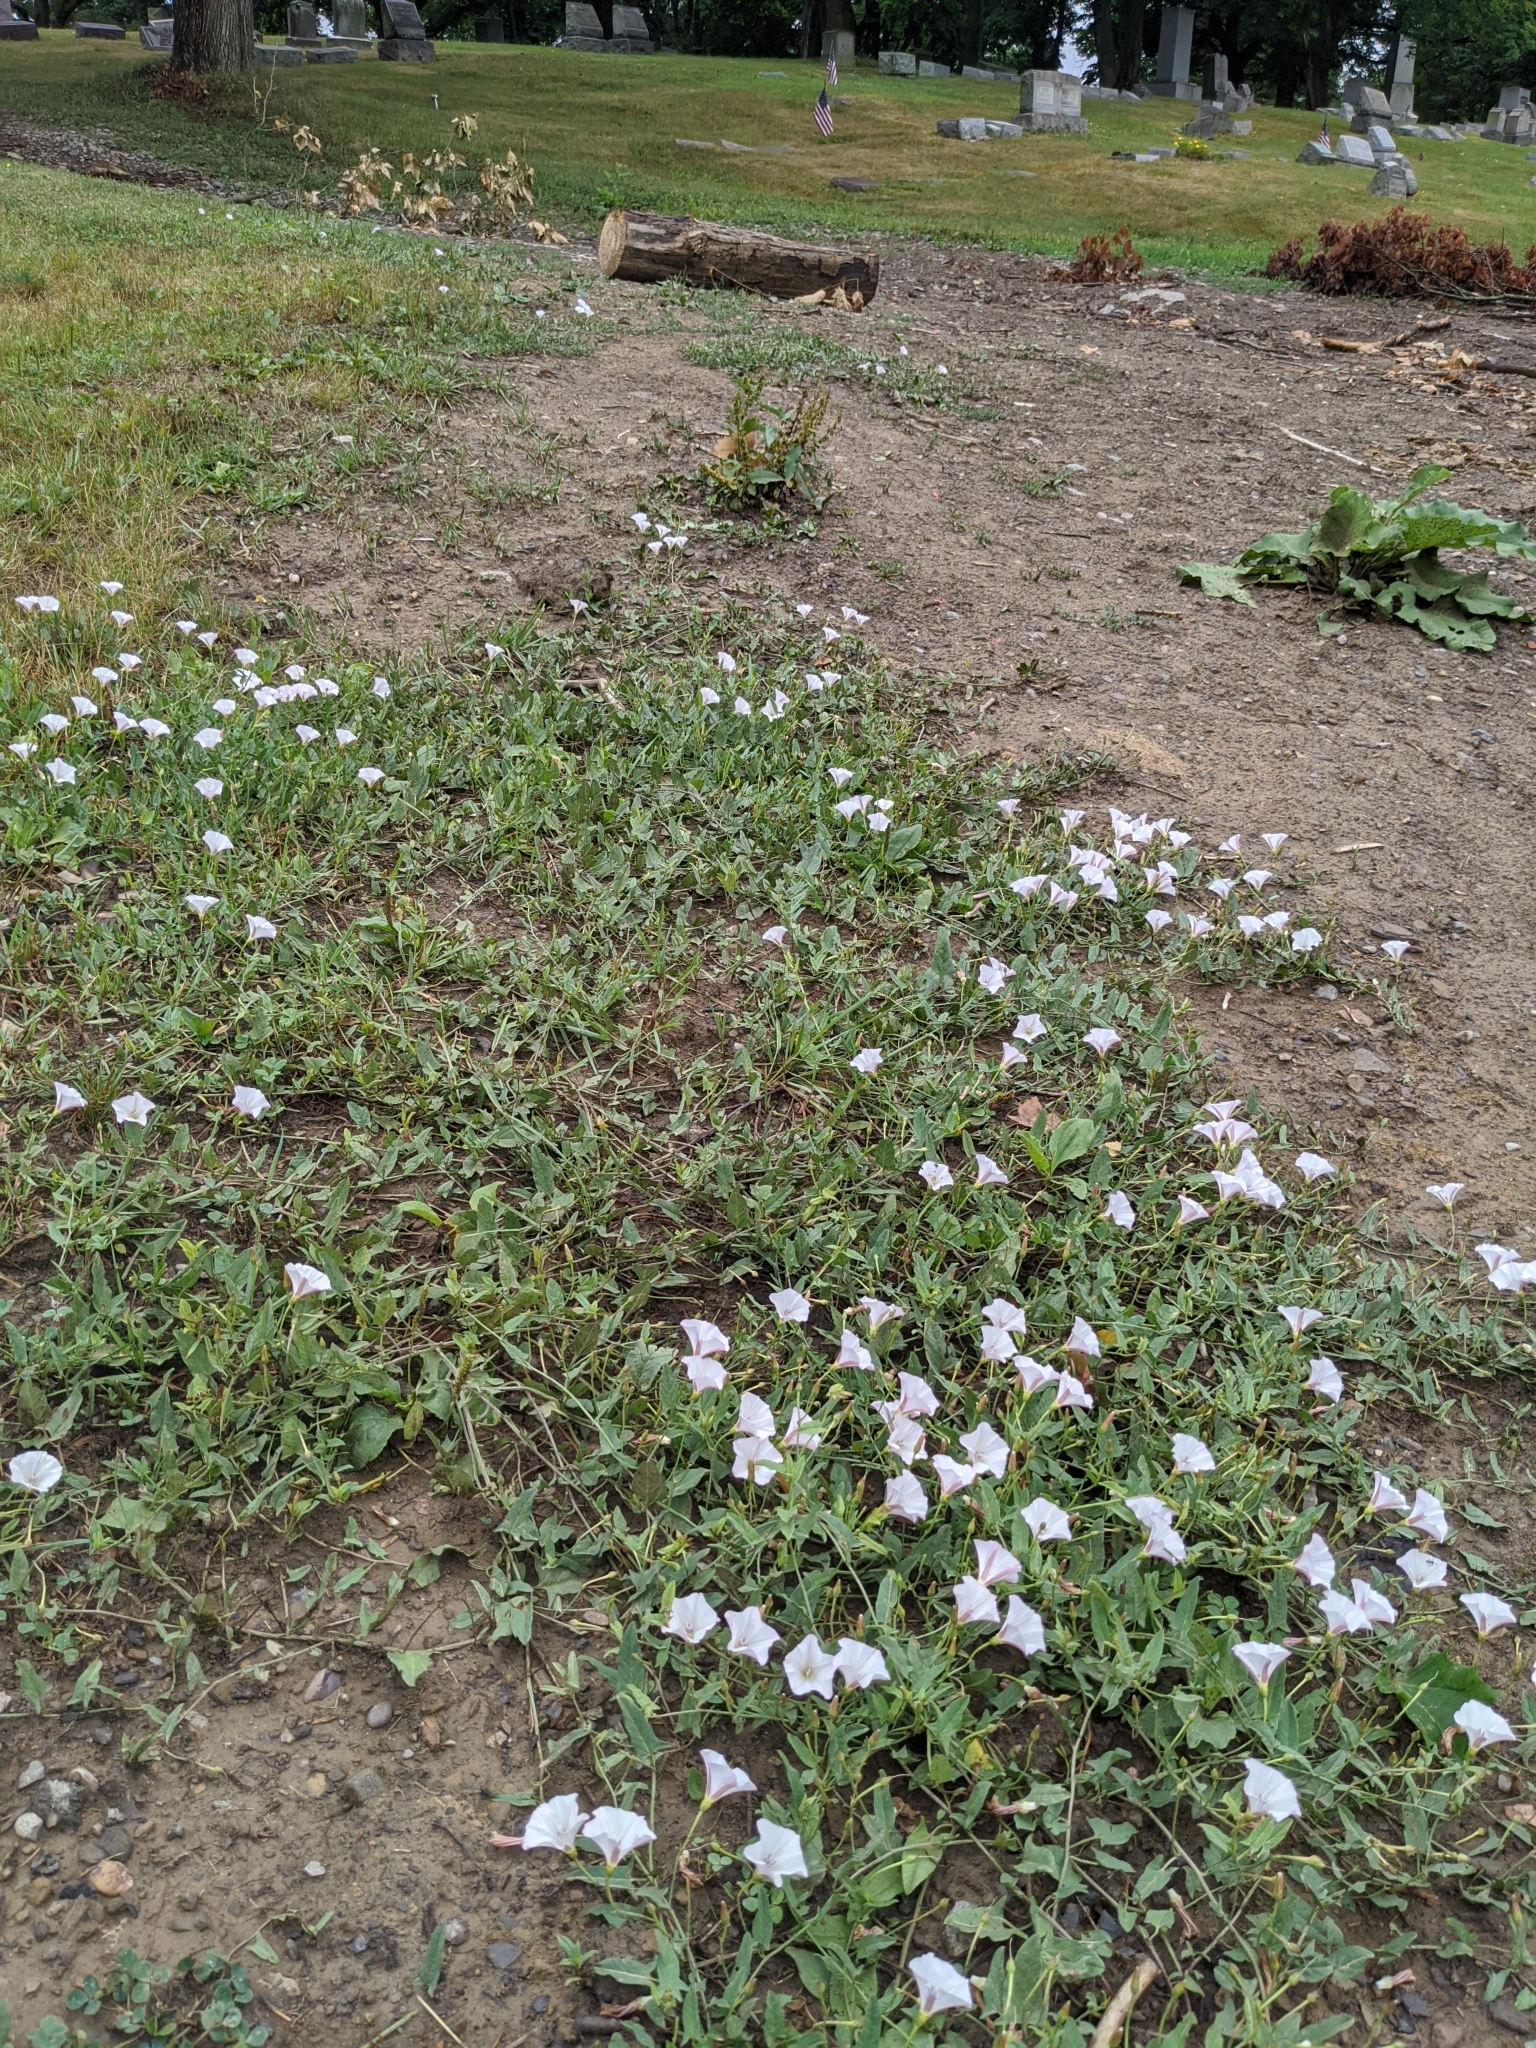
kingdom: Plantae
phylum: Tracheophyta
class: Magnoliopsida
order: Solanales
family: Convolvulaceae
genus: Convolvulus
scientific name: Convolvulus arvensis
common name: Field bindweed
